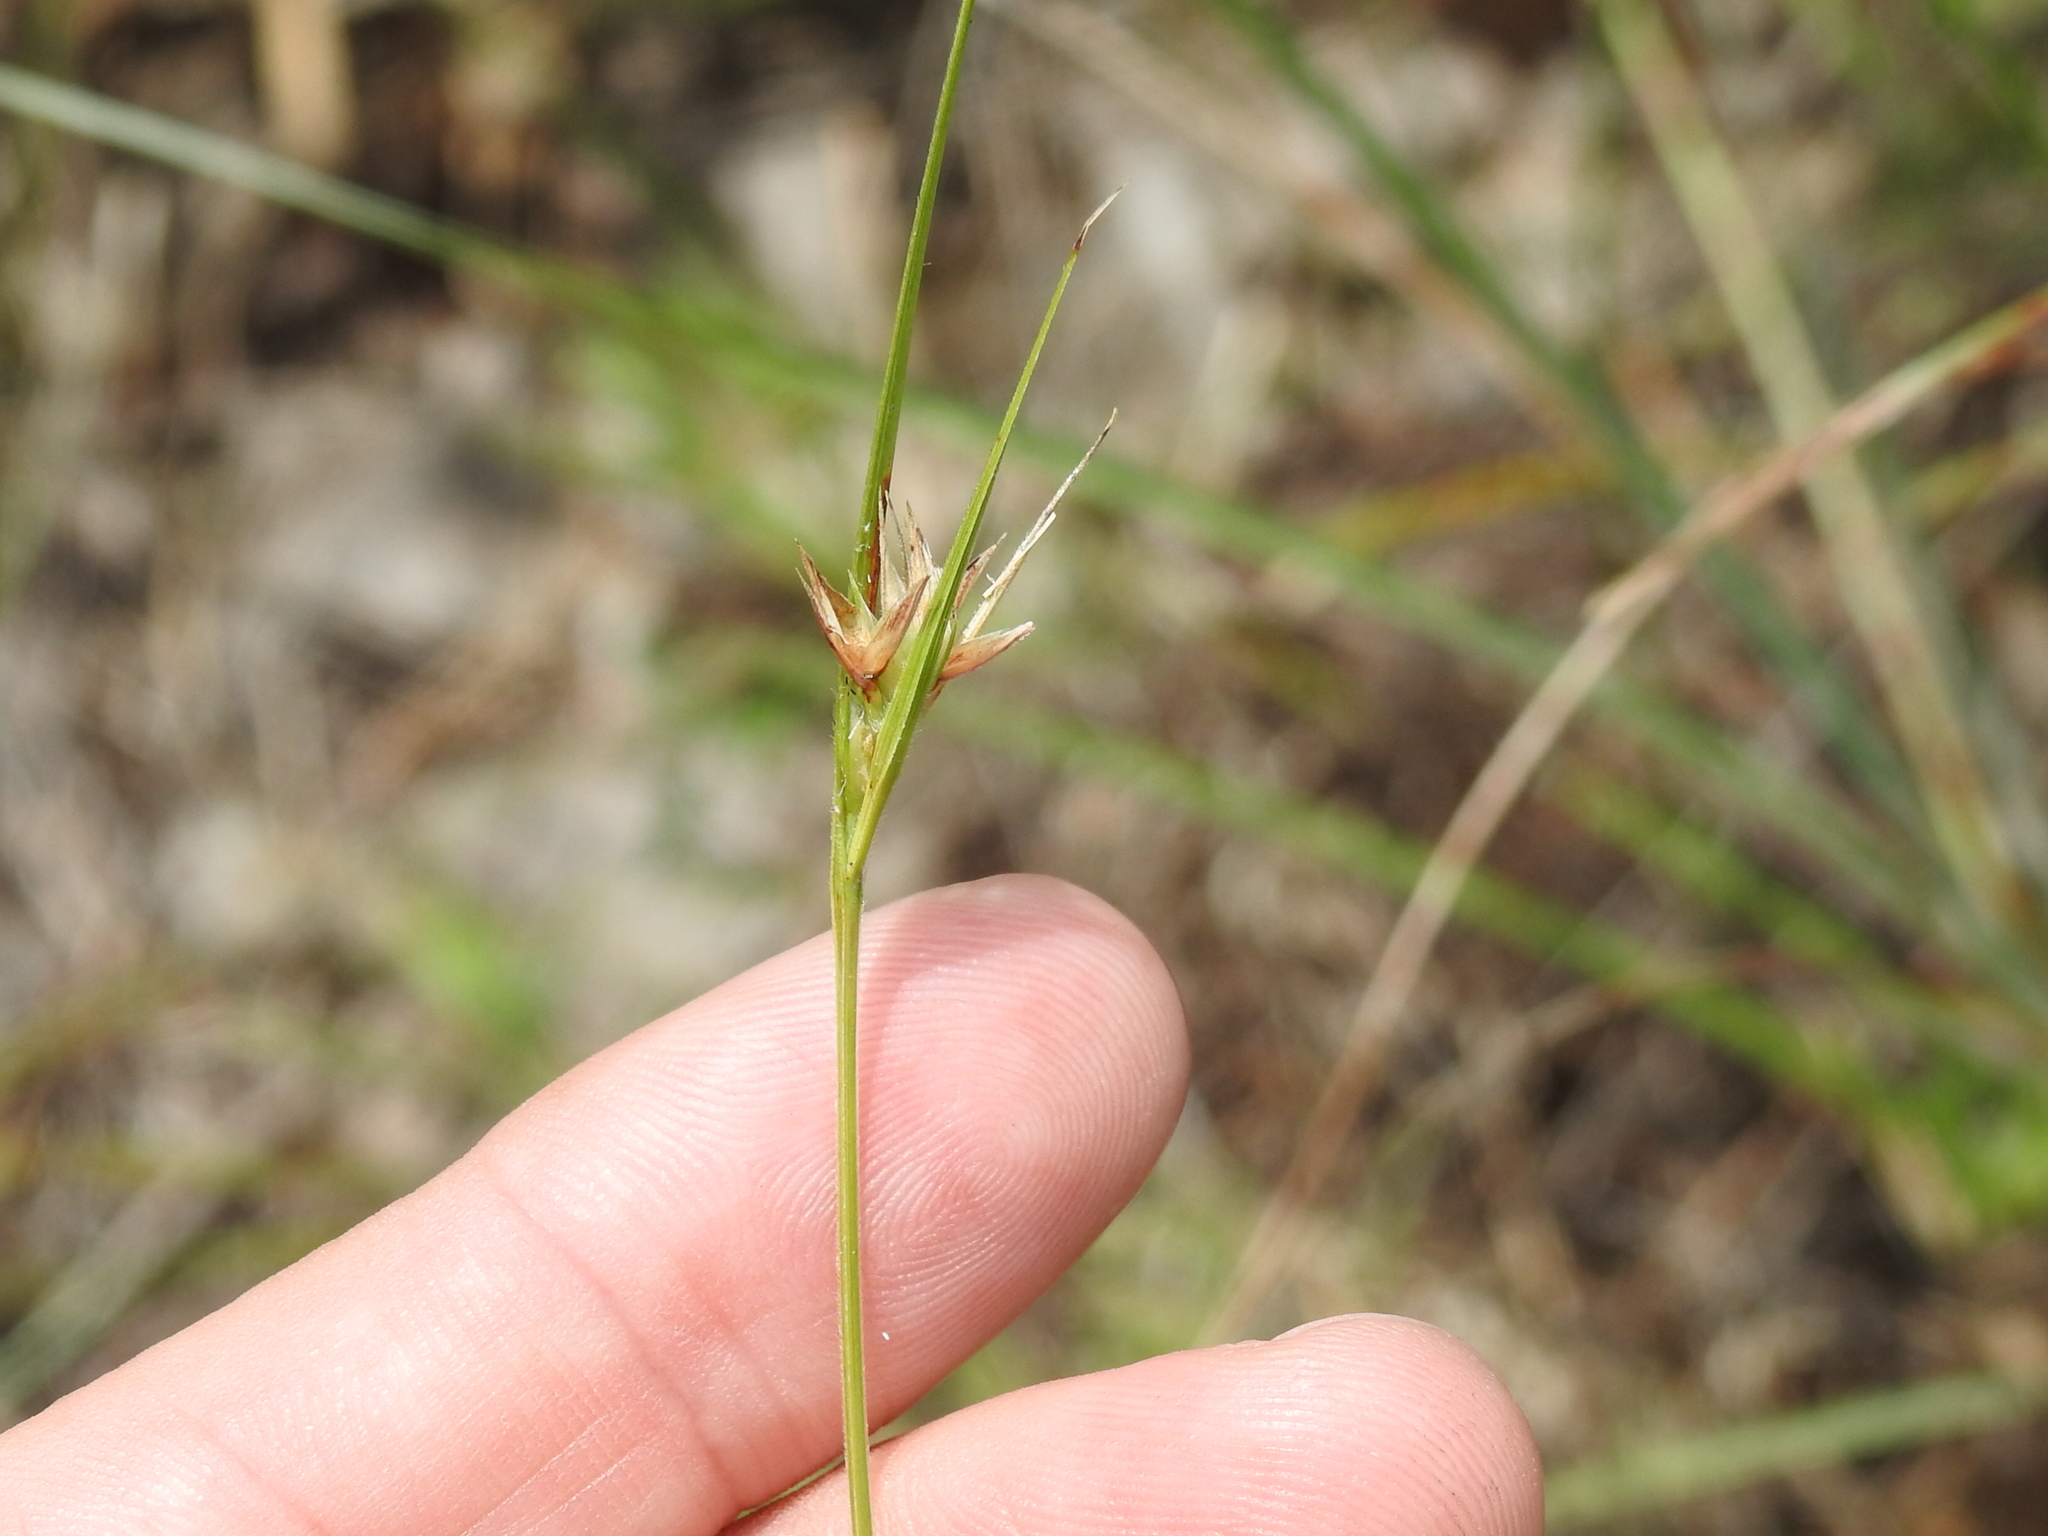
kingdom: Plantae
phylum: Tracheophyta
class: Liliopsida
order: Poales
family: Cyperaceae
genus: Scleria
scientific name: Scleria ciliata
